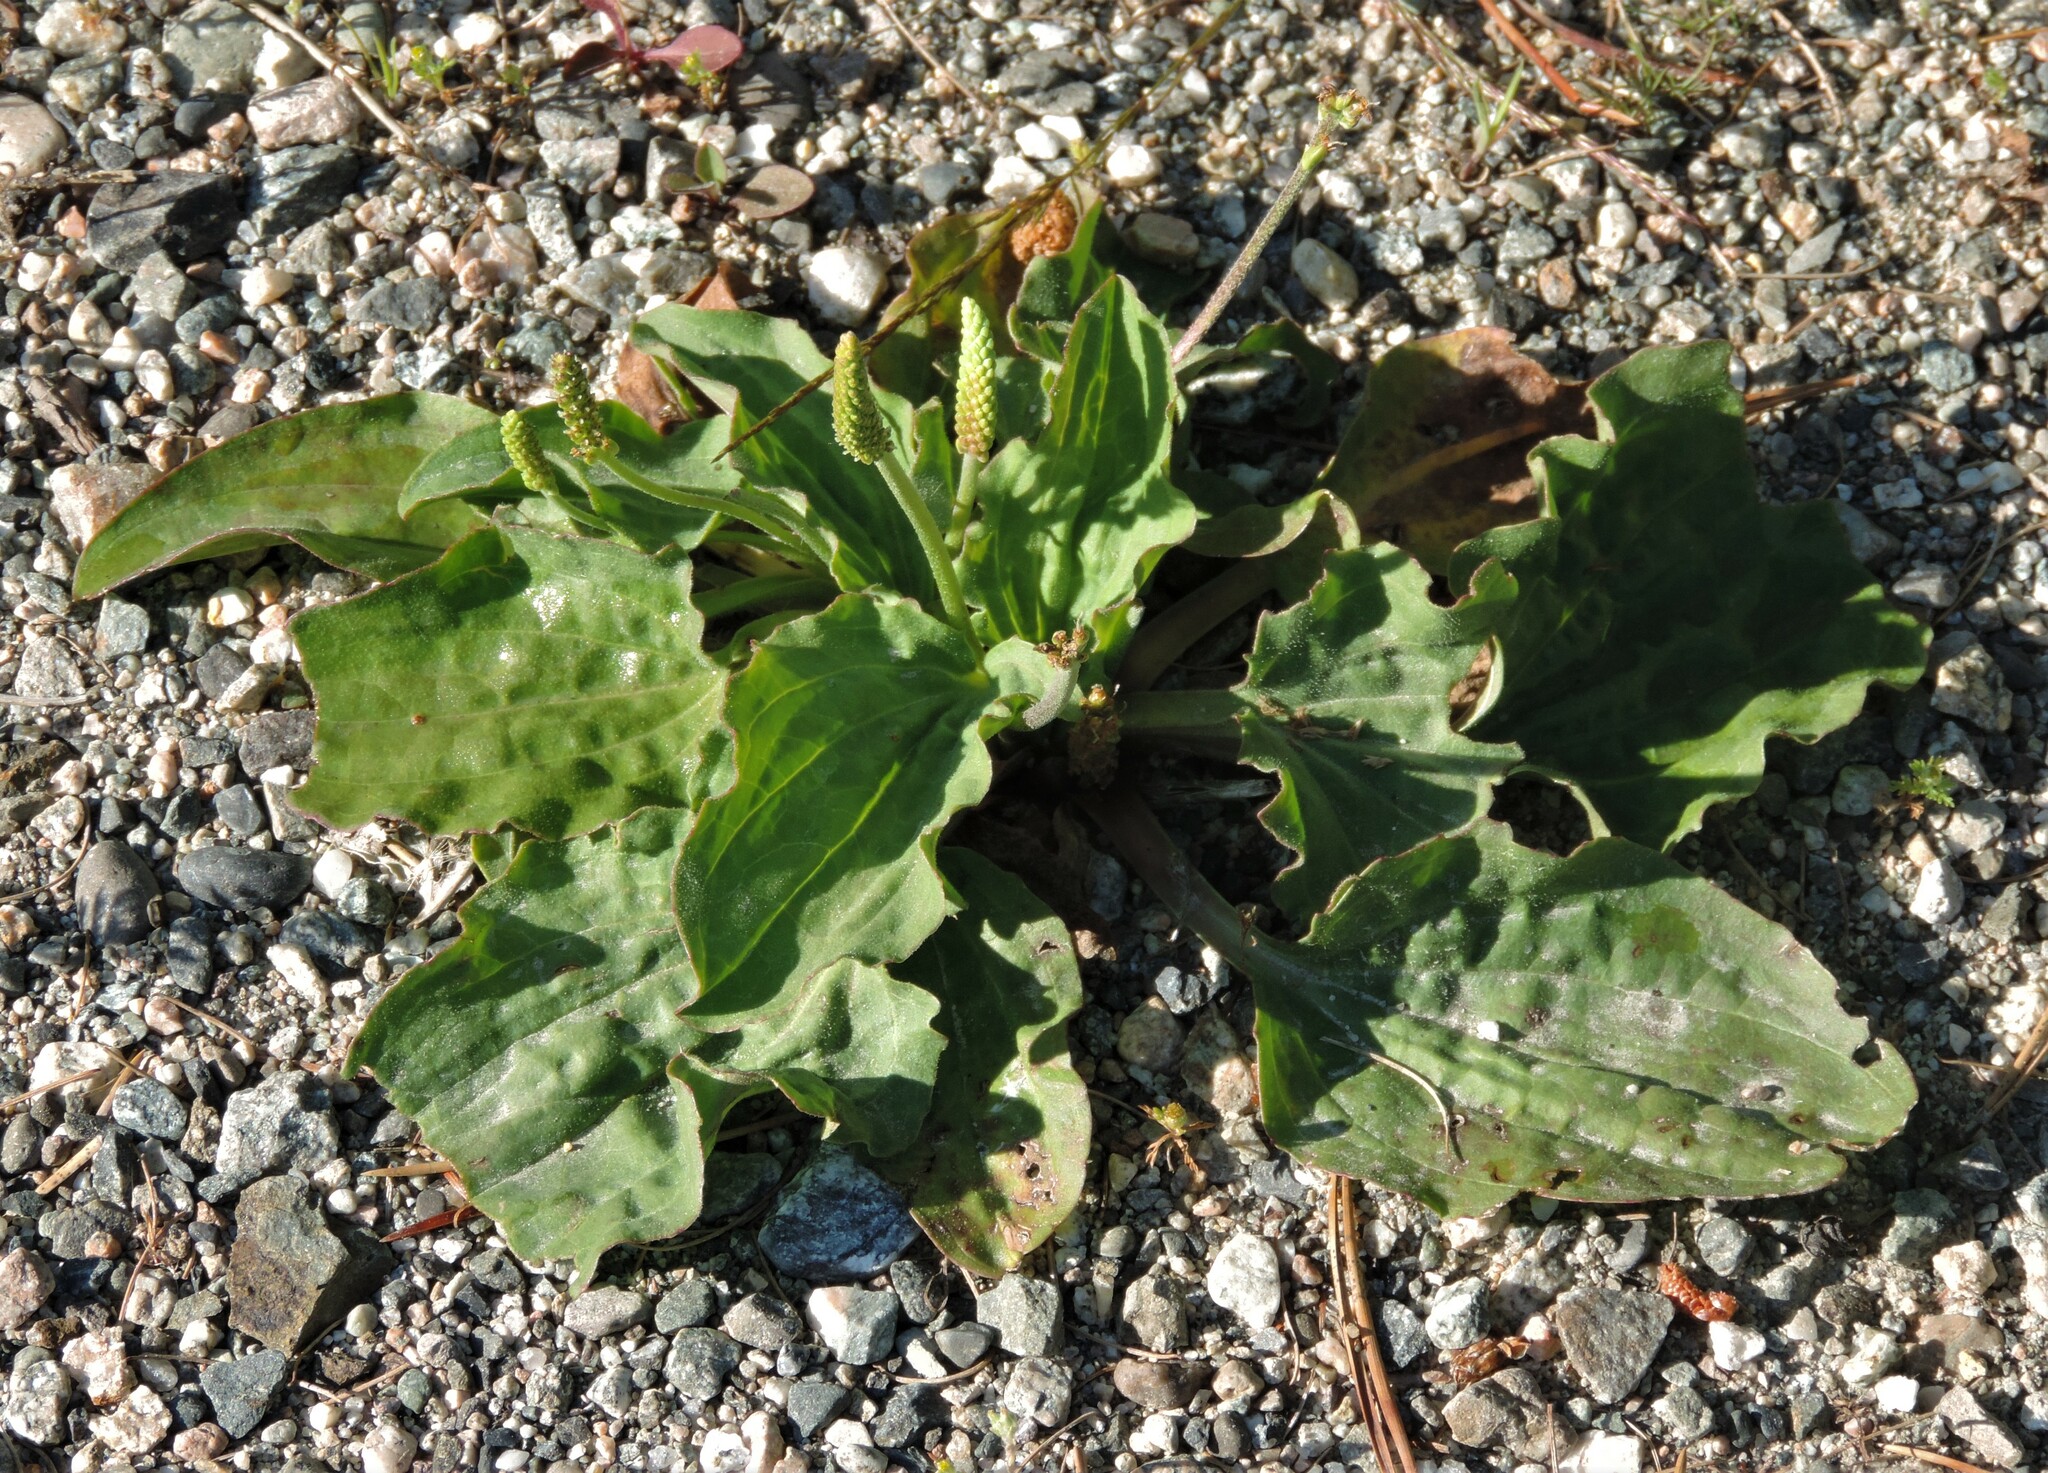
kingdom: Plantae
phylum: Tracheophyta
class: Magnoliopsida
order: Lamiales
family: Plantaginaceae
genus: Plantago
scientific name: Plantago major
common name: Common plantain
